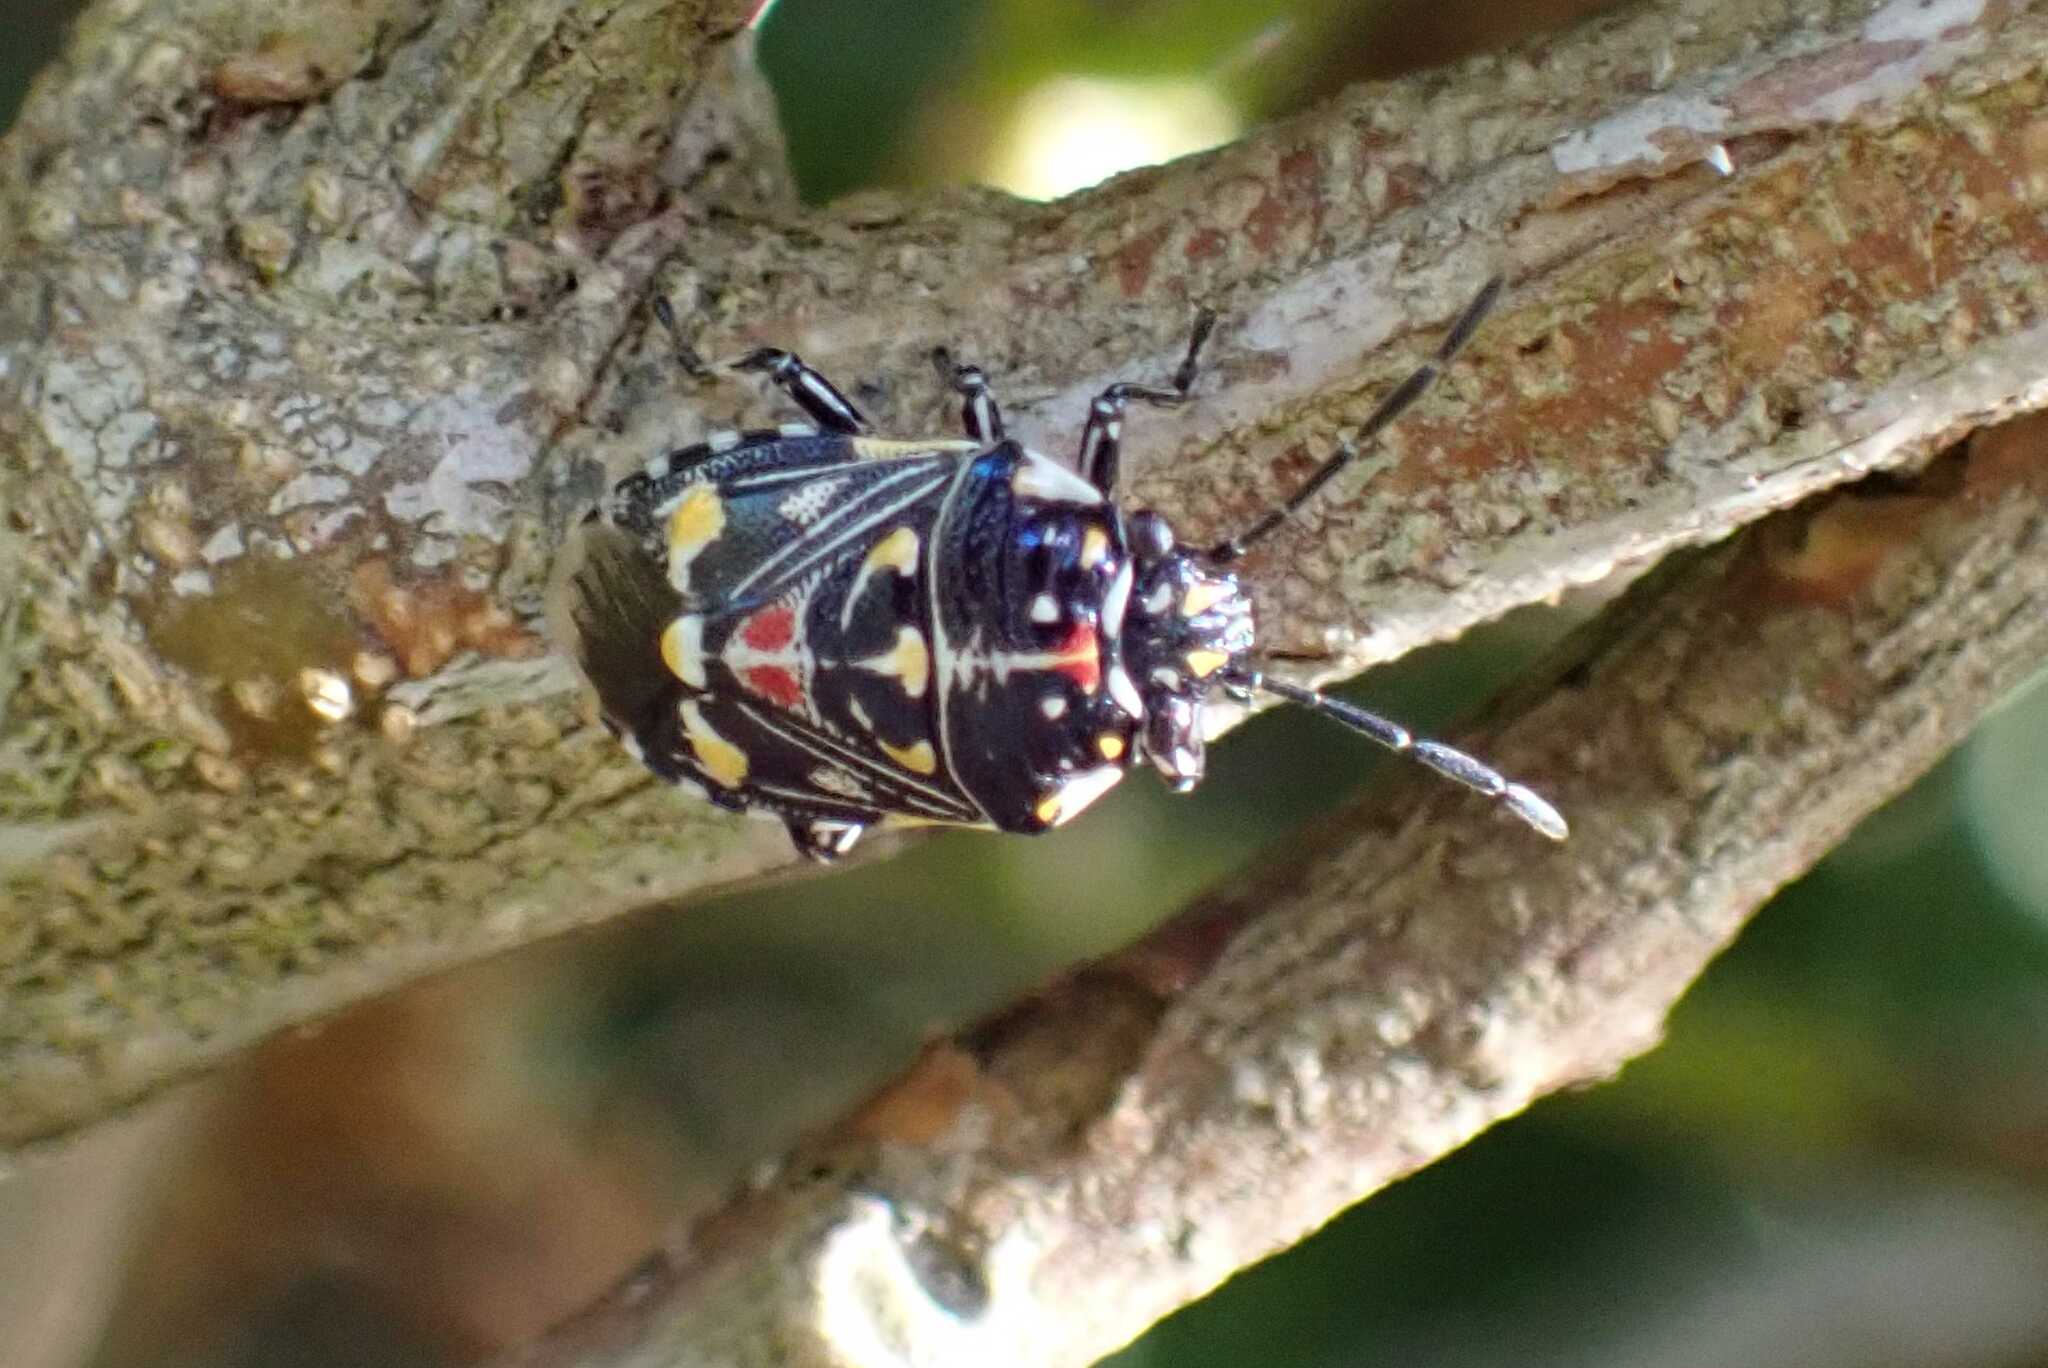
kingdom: Animalia
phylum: Arthropoda
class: Insecta
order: Hemiptera
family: Pentatomidae
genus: Oebalus
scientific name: Oebalus poecilus
